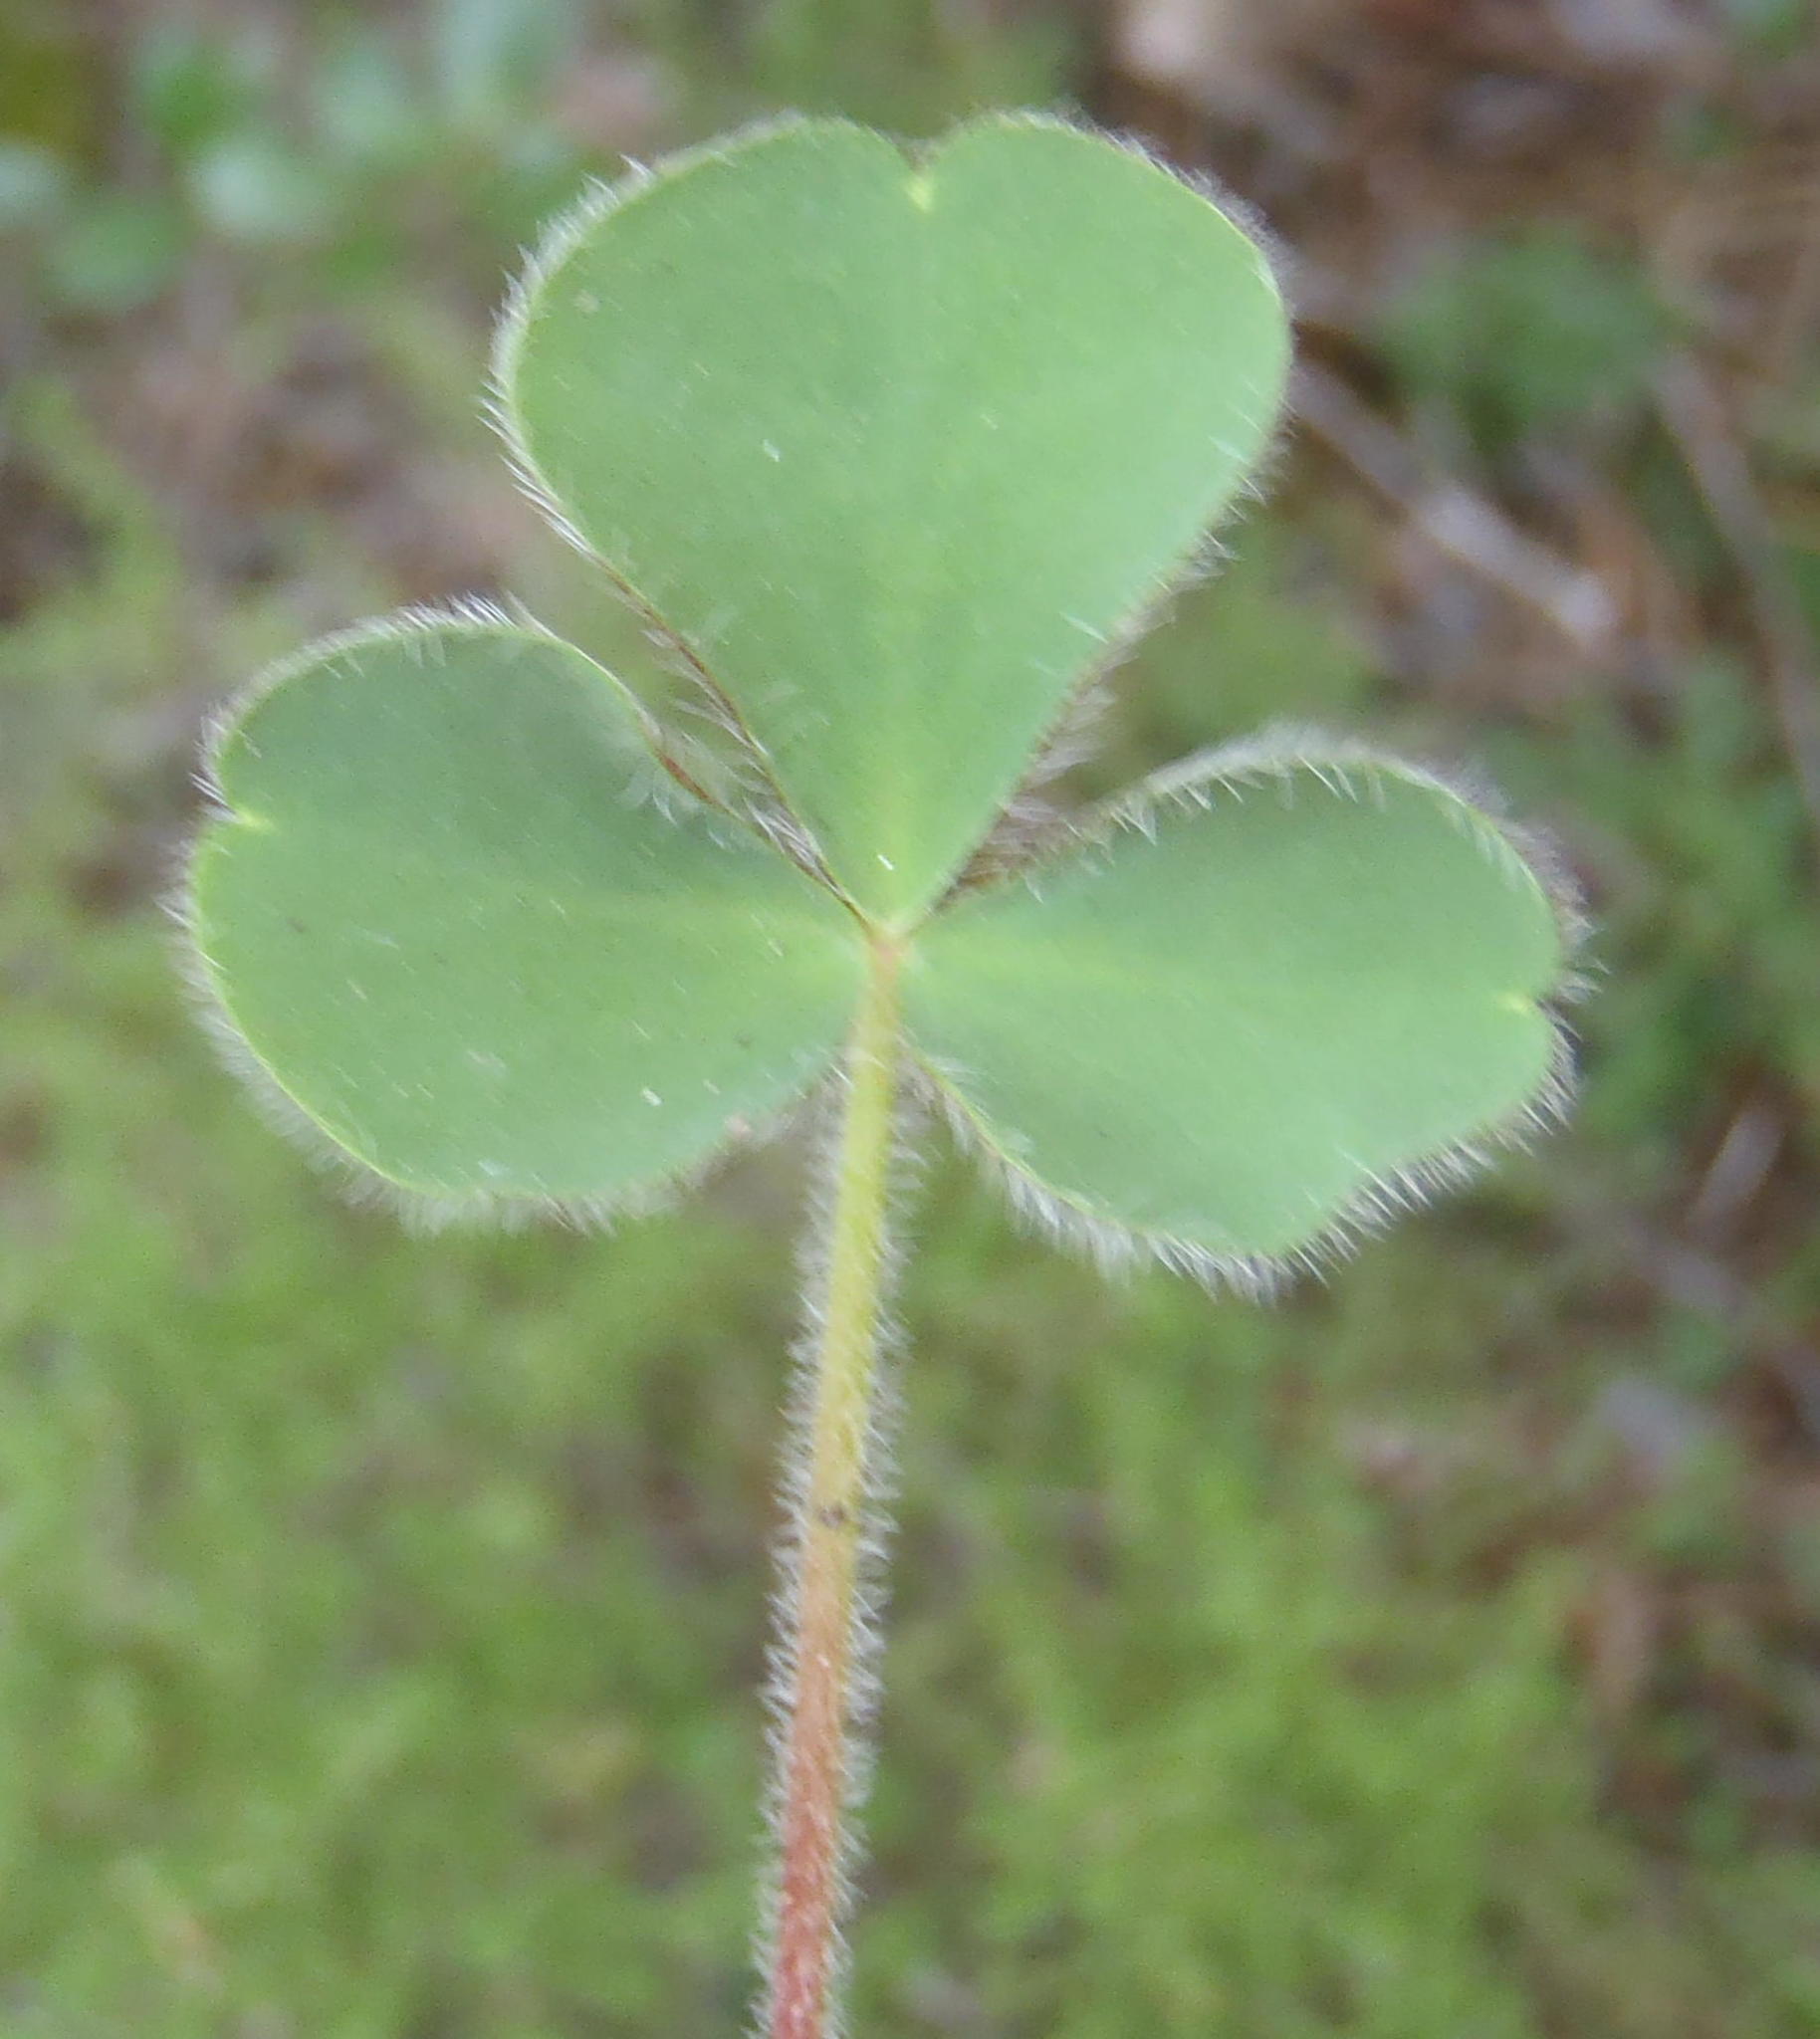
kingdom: Plantae
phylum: Tracheophyta
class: Magnoliopsida
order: Oxalidales
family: Oxalidaceae
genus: Oxalis
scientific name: Oxalis imbricata
